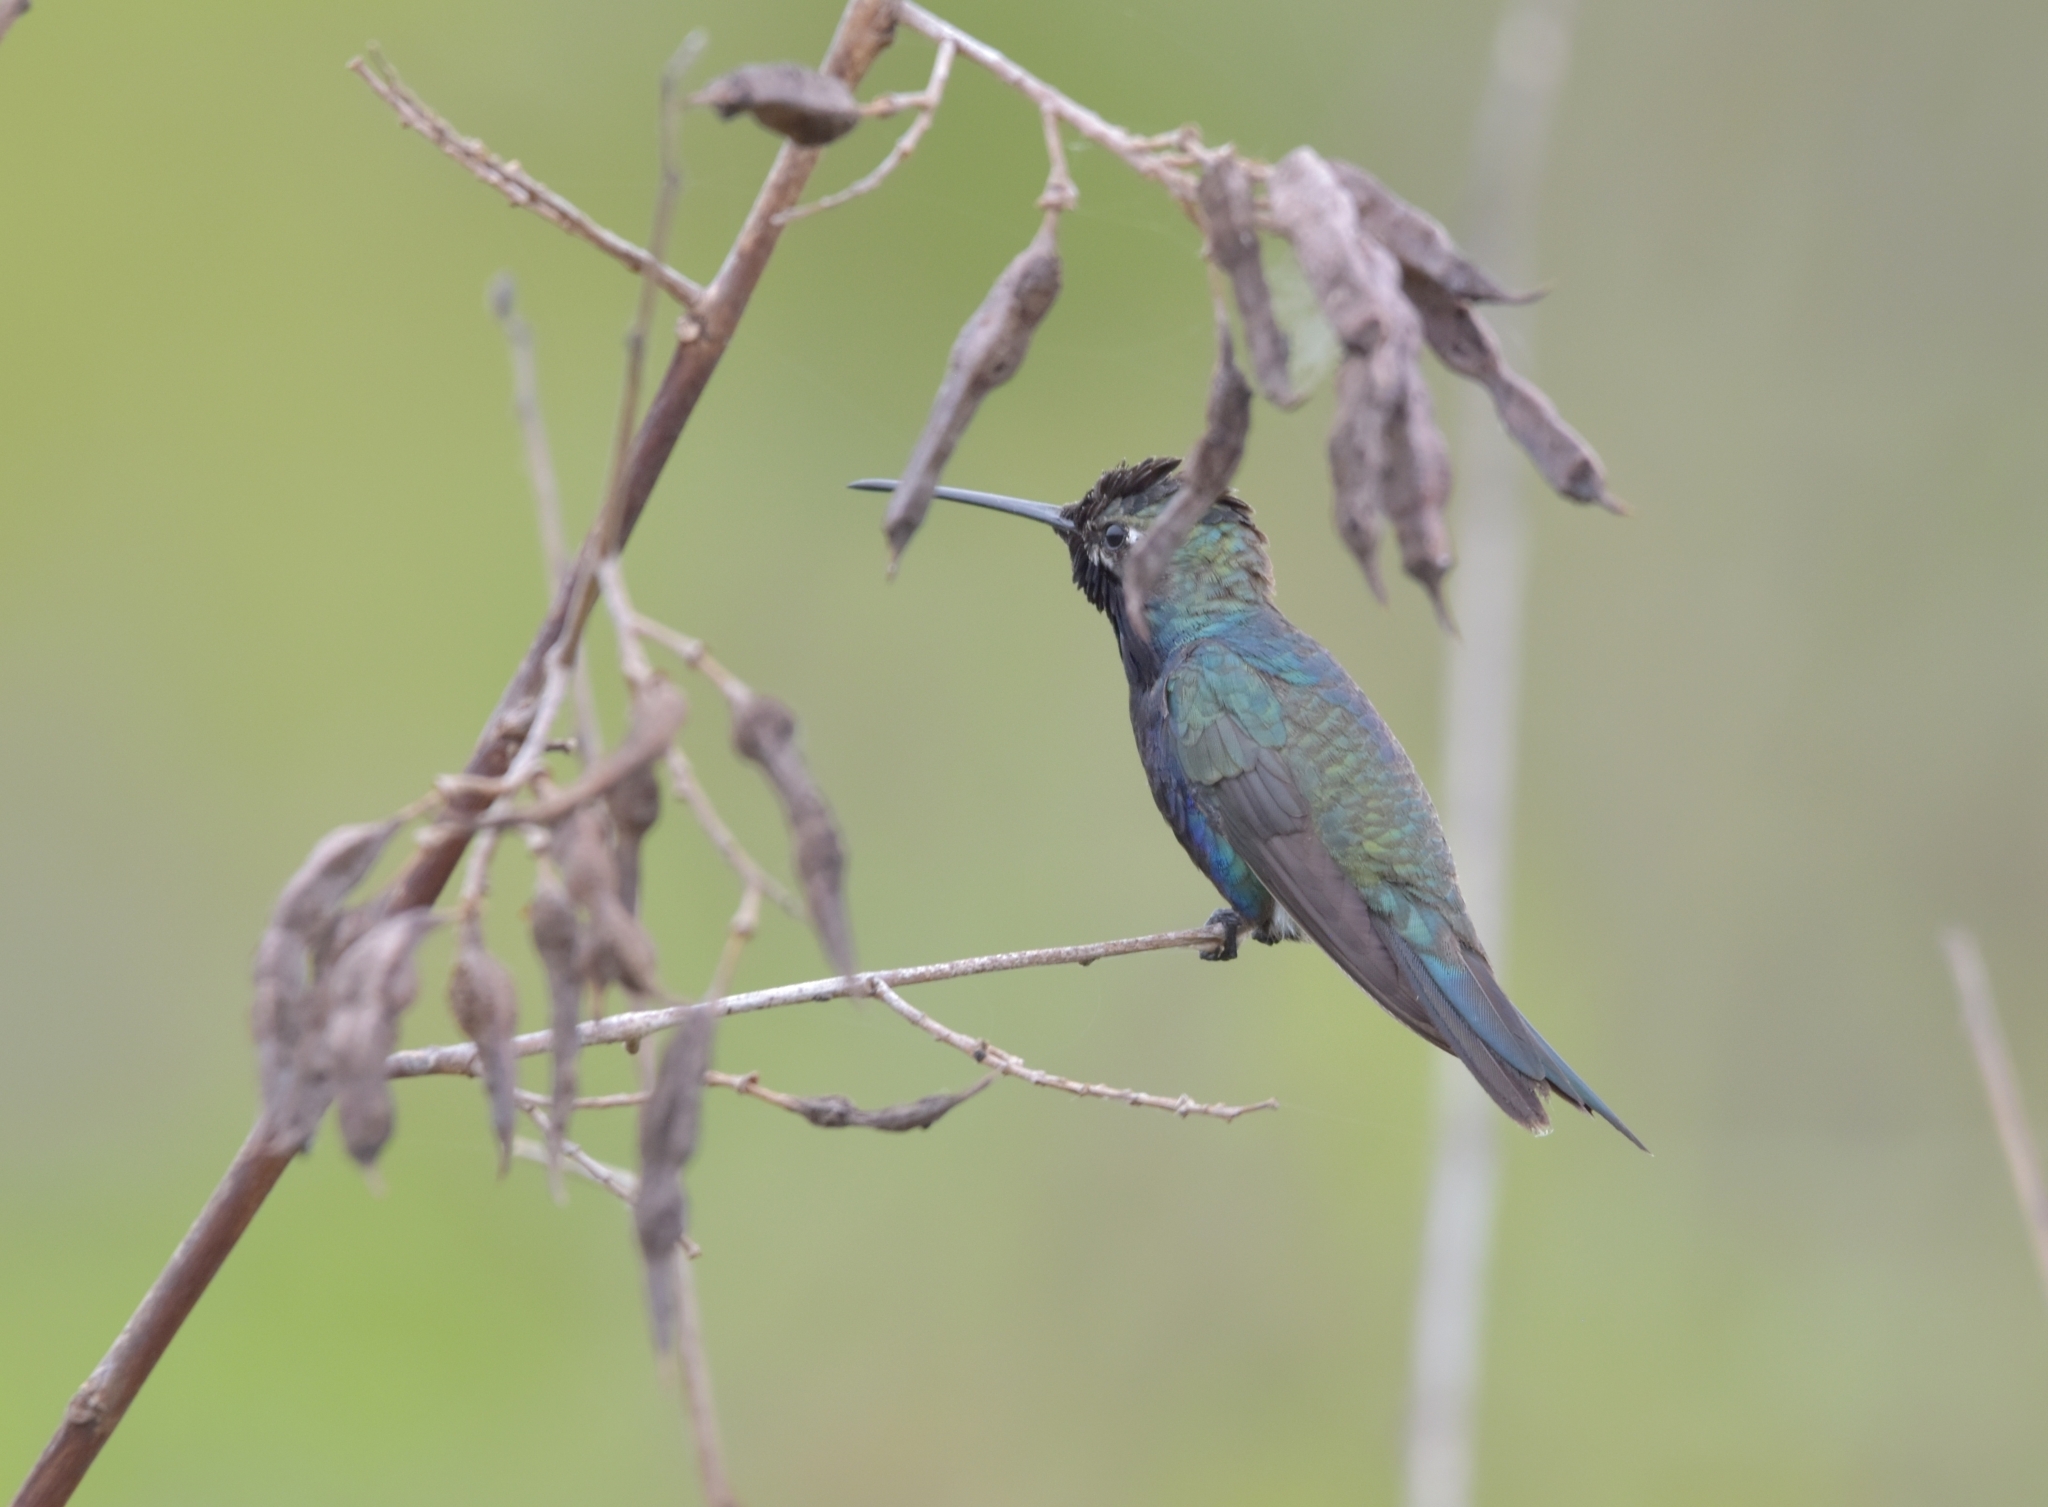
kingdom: Animalia
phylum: Chordata
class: Aves
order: Apodiformes
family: Trochilidae
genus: Heliomaster
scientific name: Heliomaster furcifer
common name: Blue-tufted starthroat
